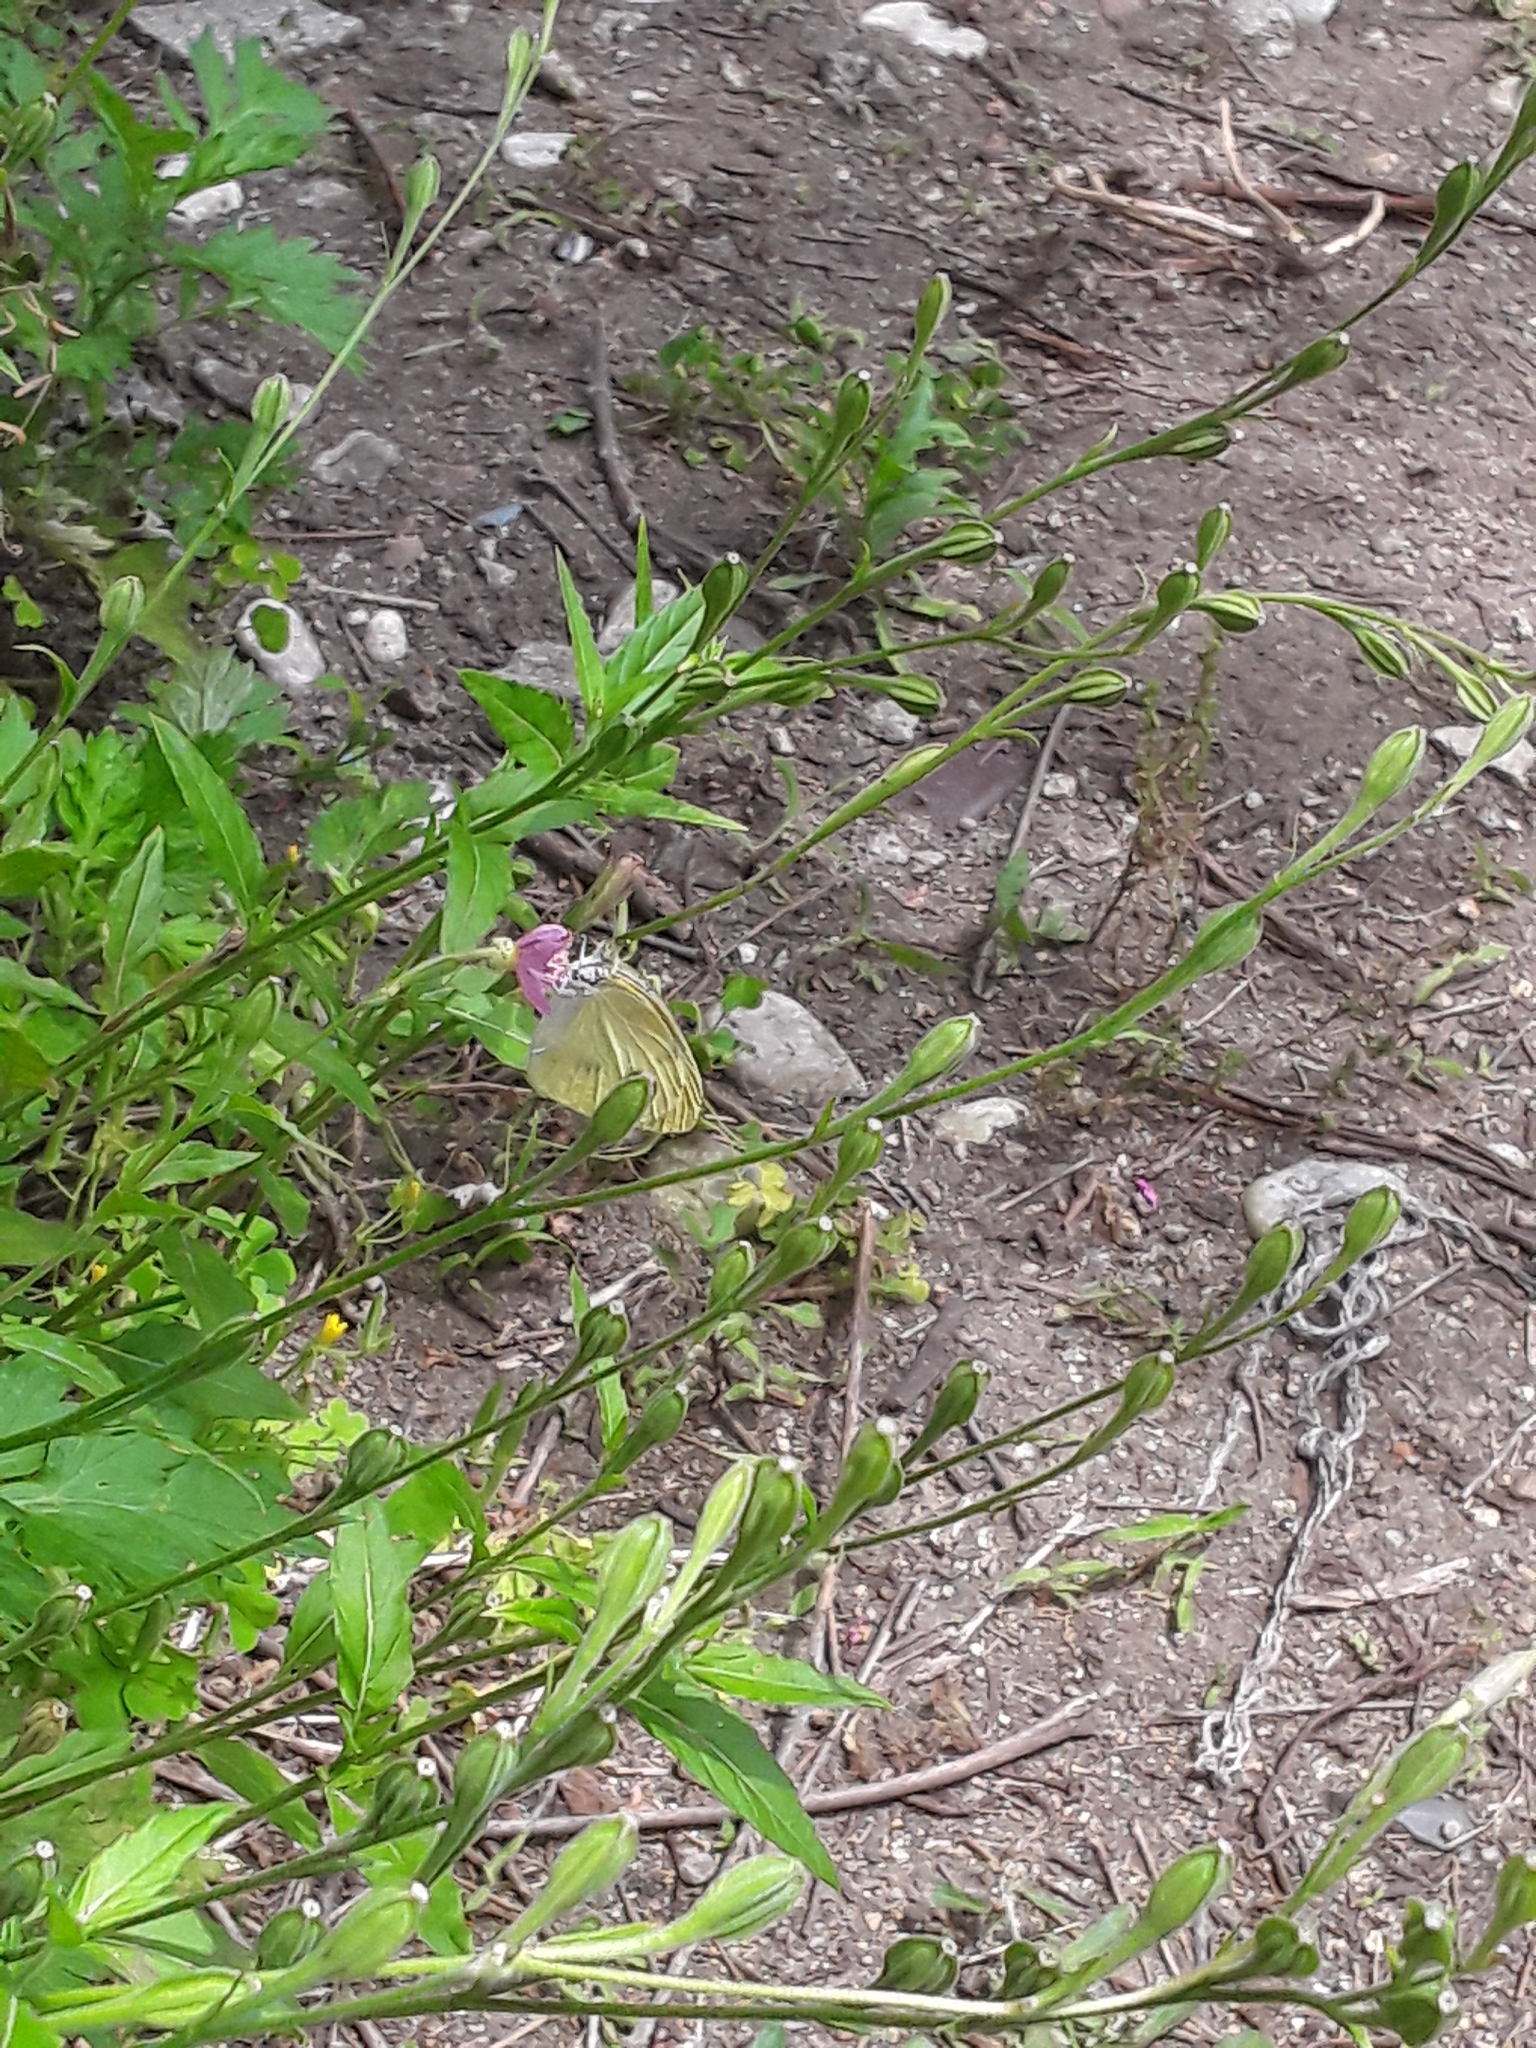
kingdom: Animalia
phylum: Arthropoda
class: Insecta
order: Lepidoptera
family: Pieridae
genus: Pieris
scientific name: Pieris rapae
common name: Small white
